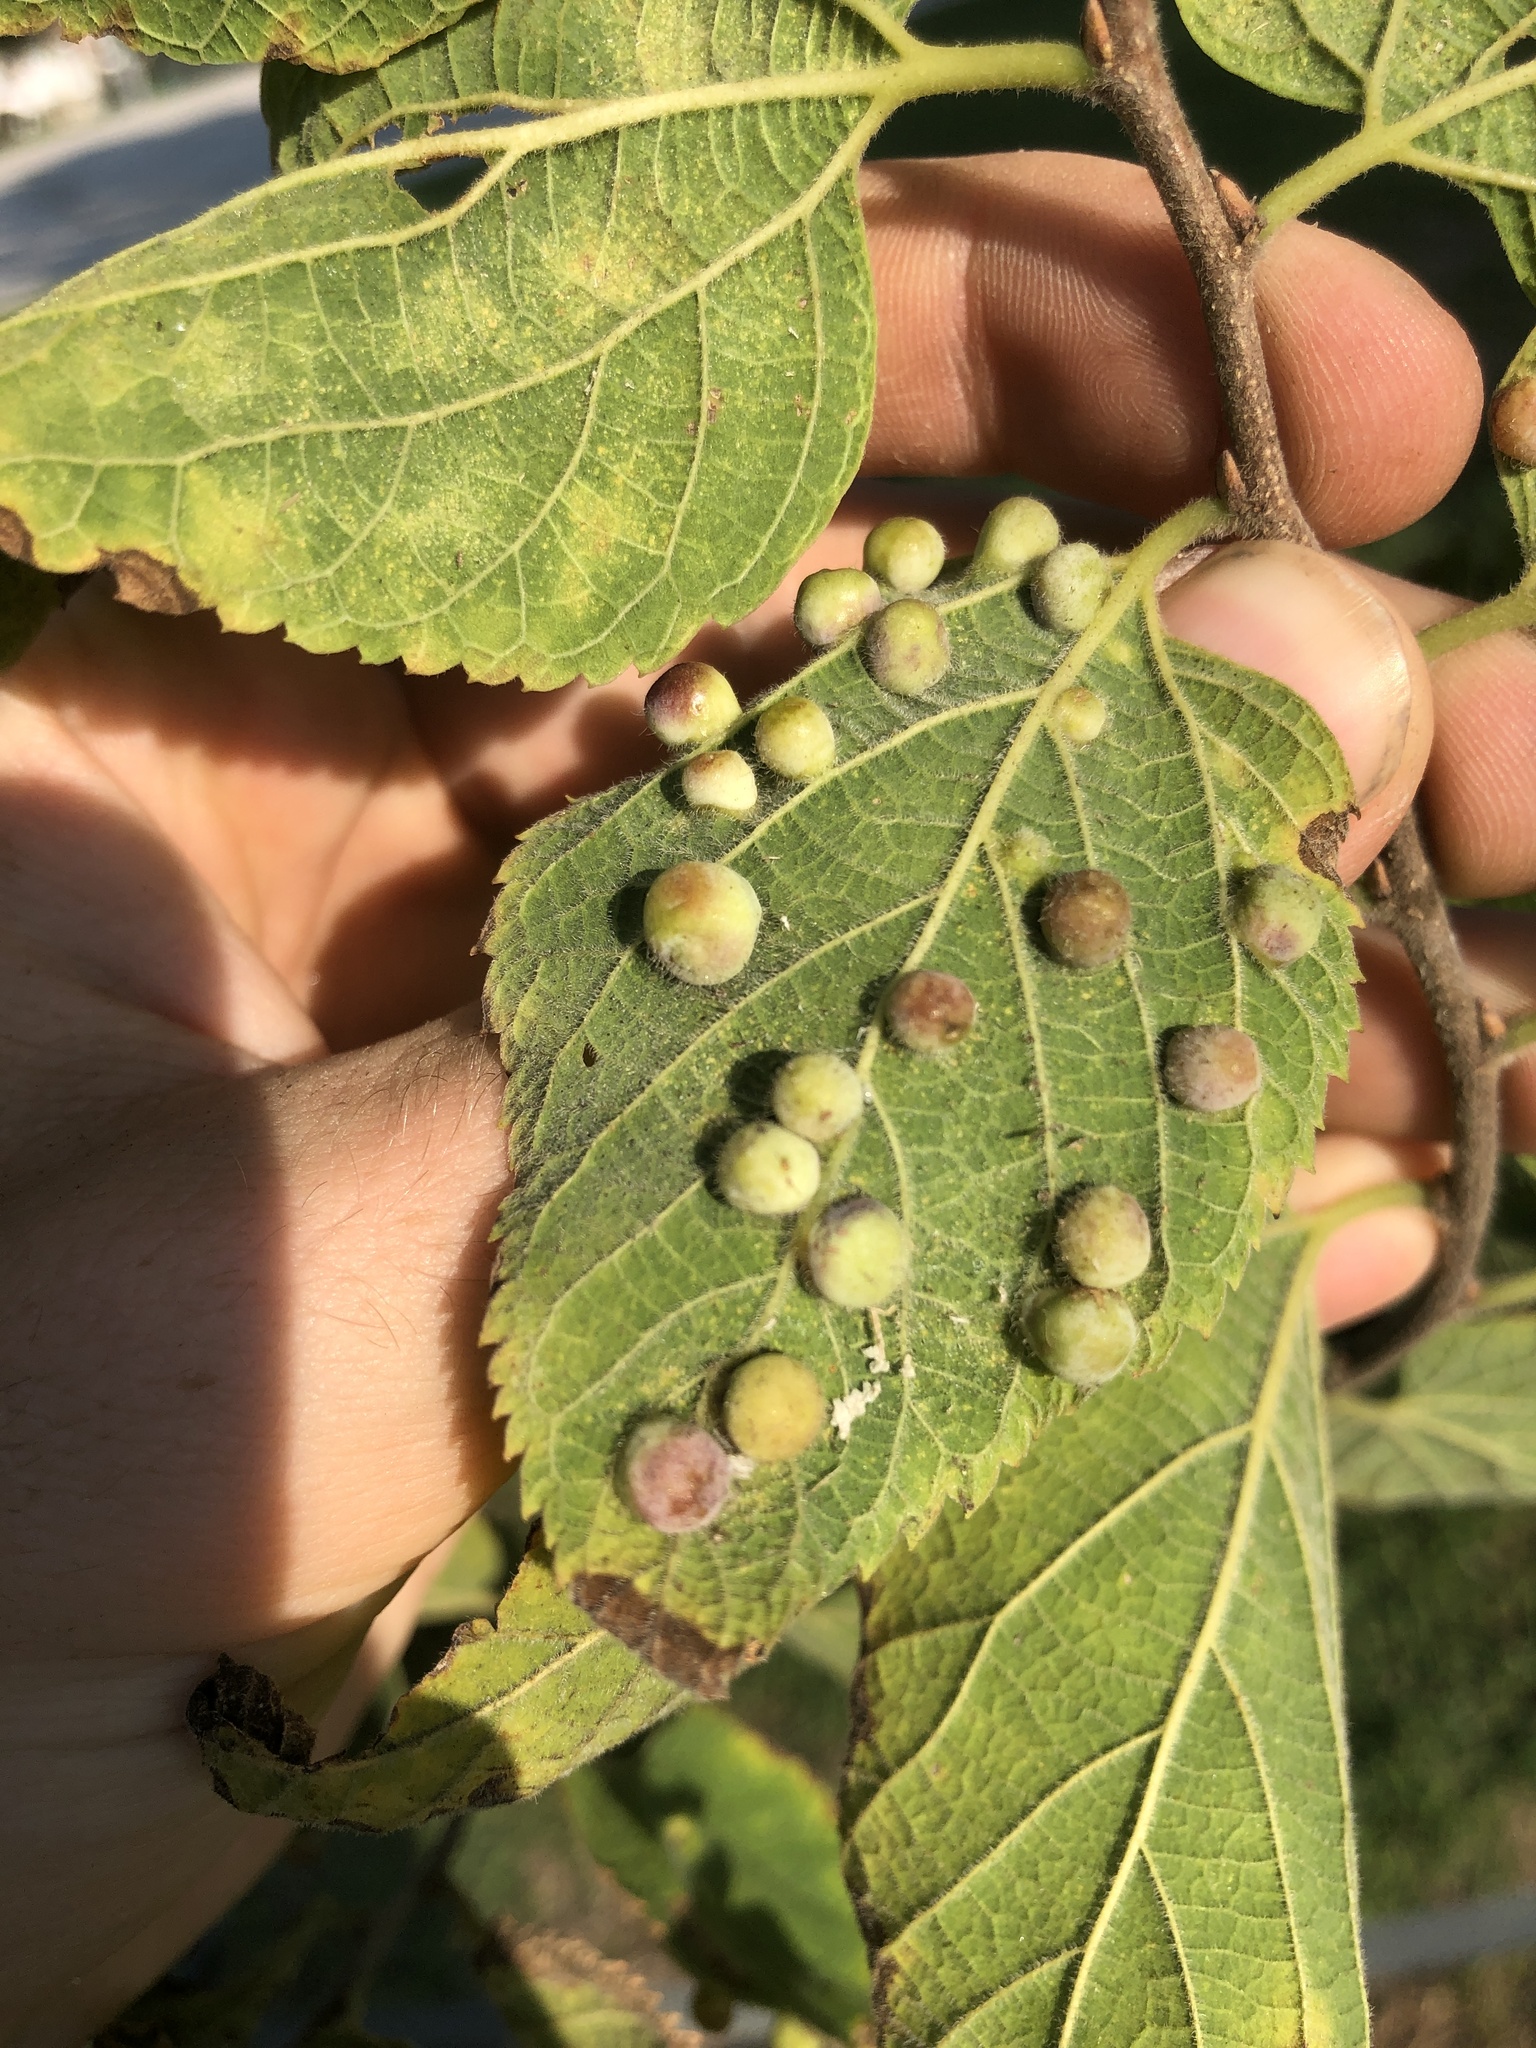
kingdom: Animalia
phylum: Arthropoda
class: Insecta
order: Hemiptera
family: Aphalaridae
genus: Pachypsylla
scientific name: Pachypsylla celtidismamma
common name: Hackberry nipplegall psyllid
